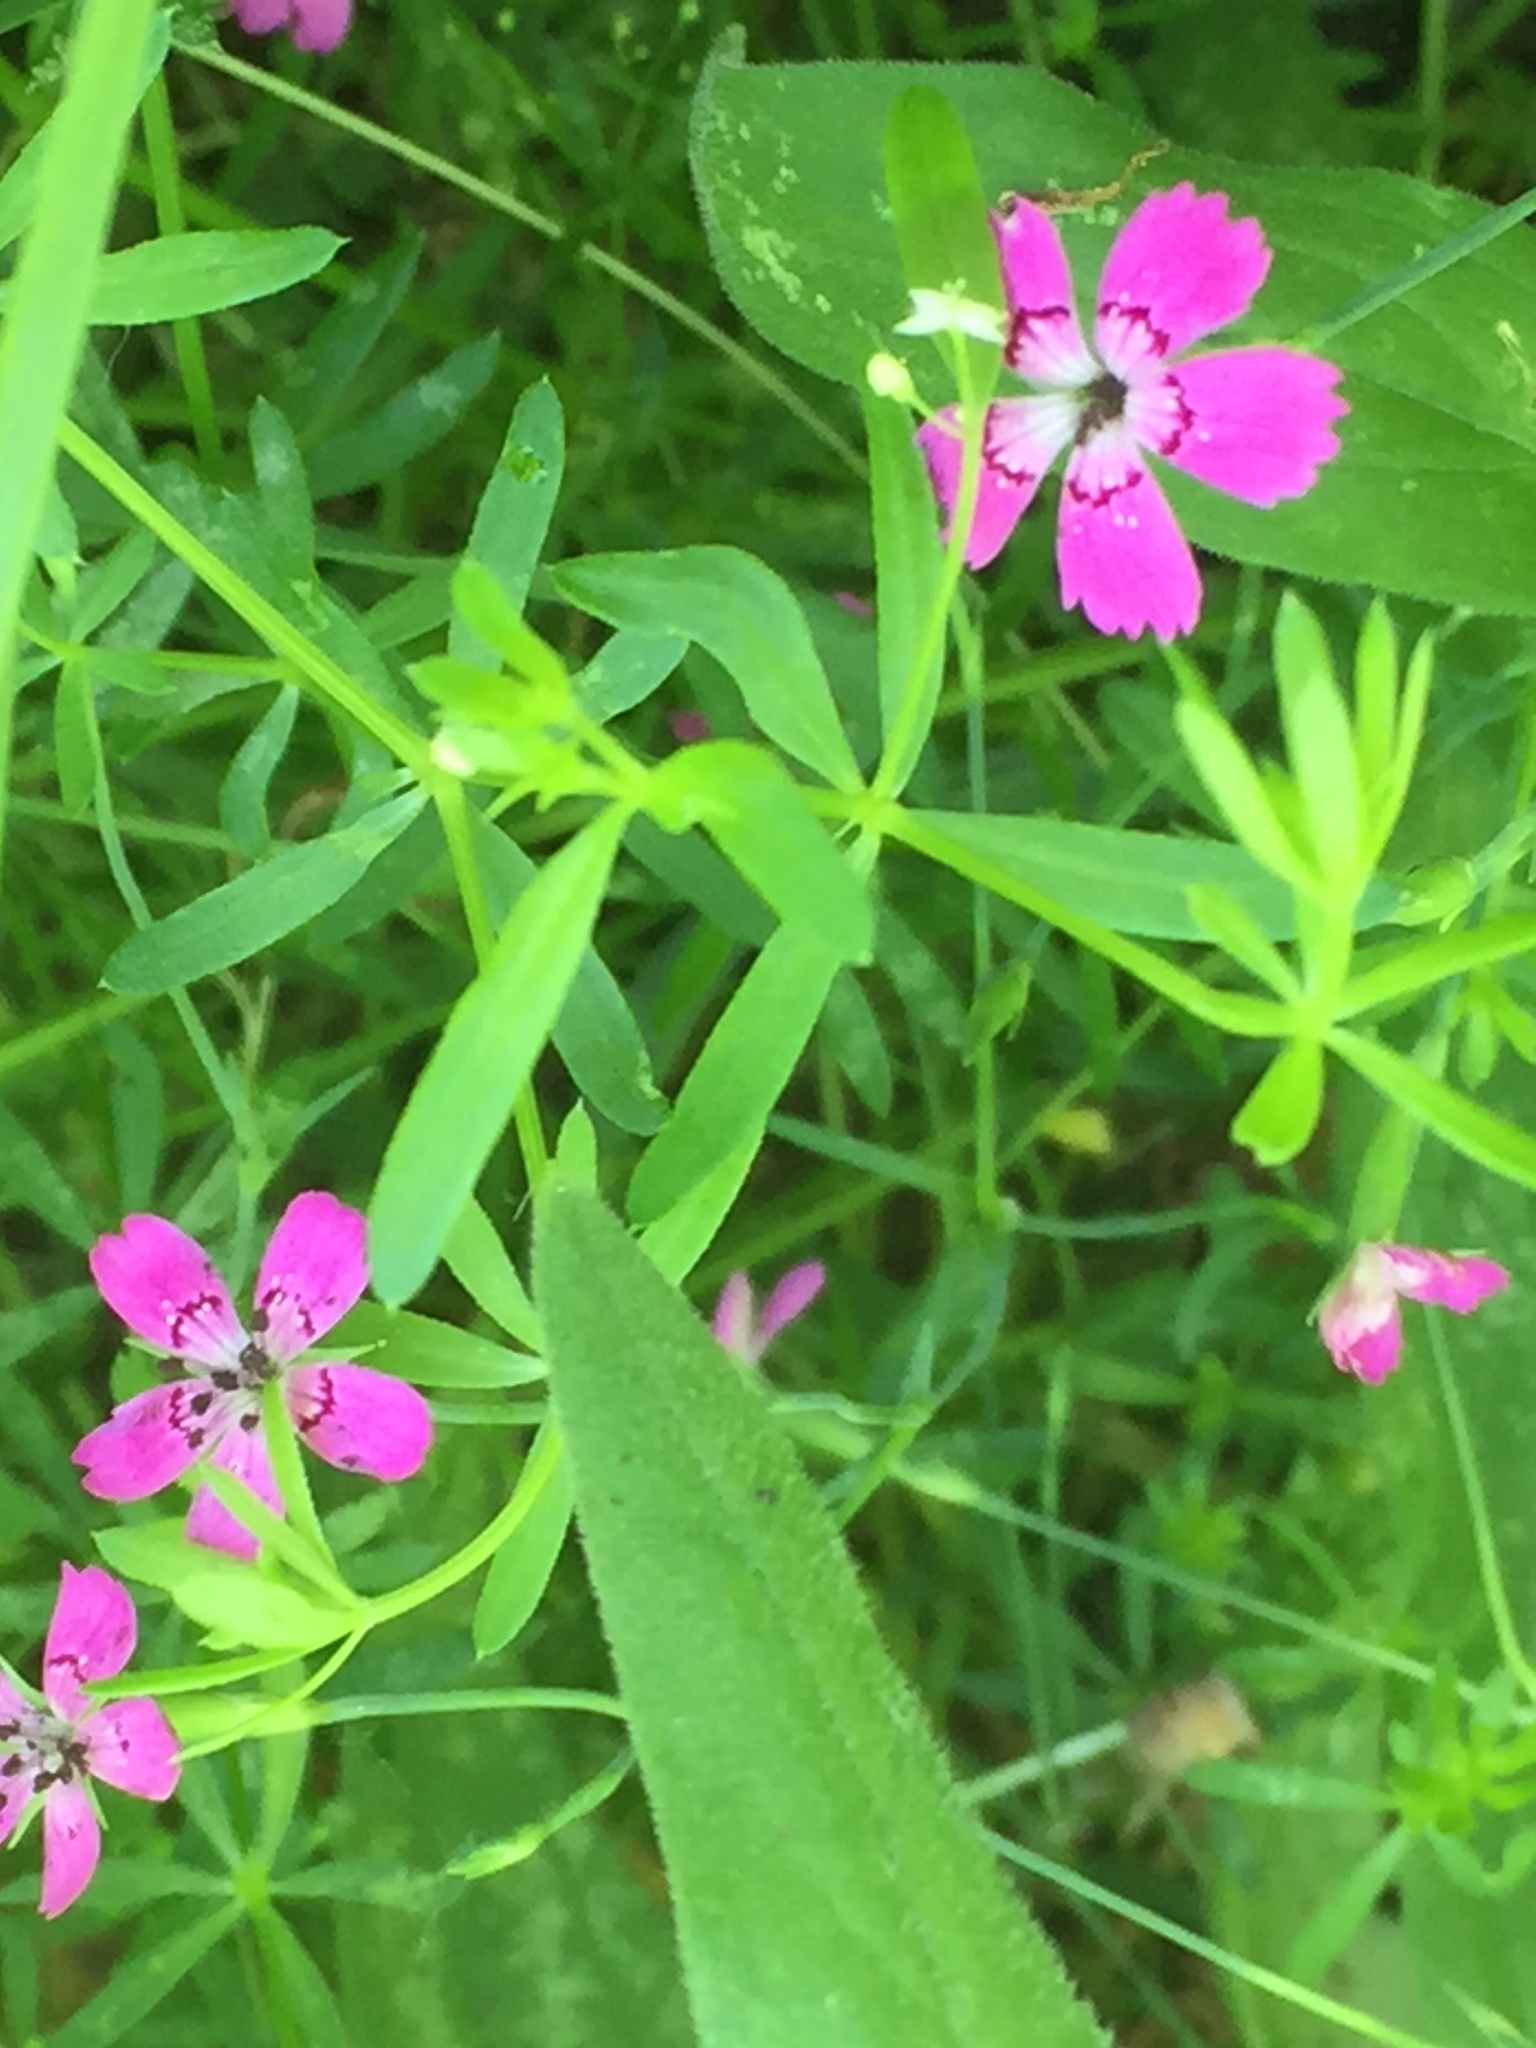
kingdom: Plantae
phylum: Tracheophyta
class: Magnoliopsida
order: Caryophyllales
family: Caryophyllaceae
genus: Dianthus
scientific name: Dianthus deltoides
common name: Maiden pink
